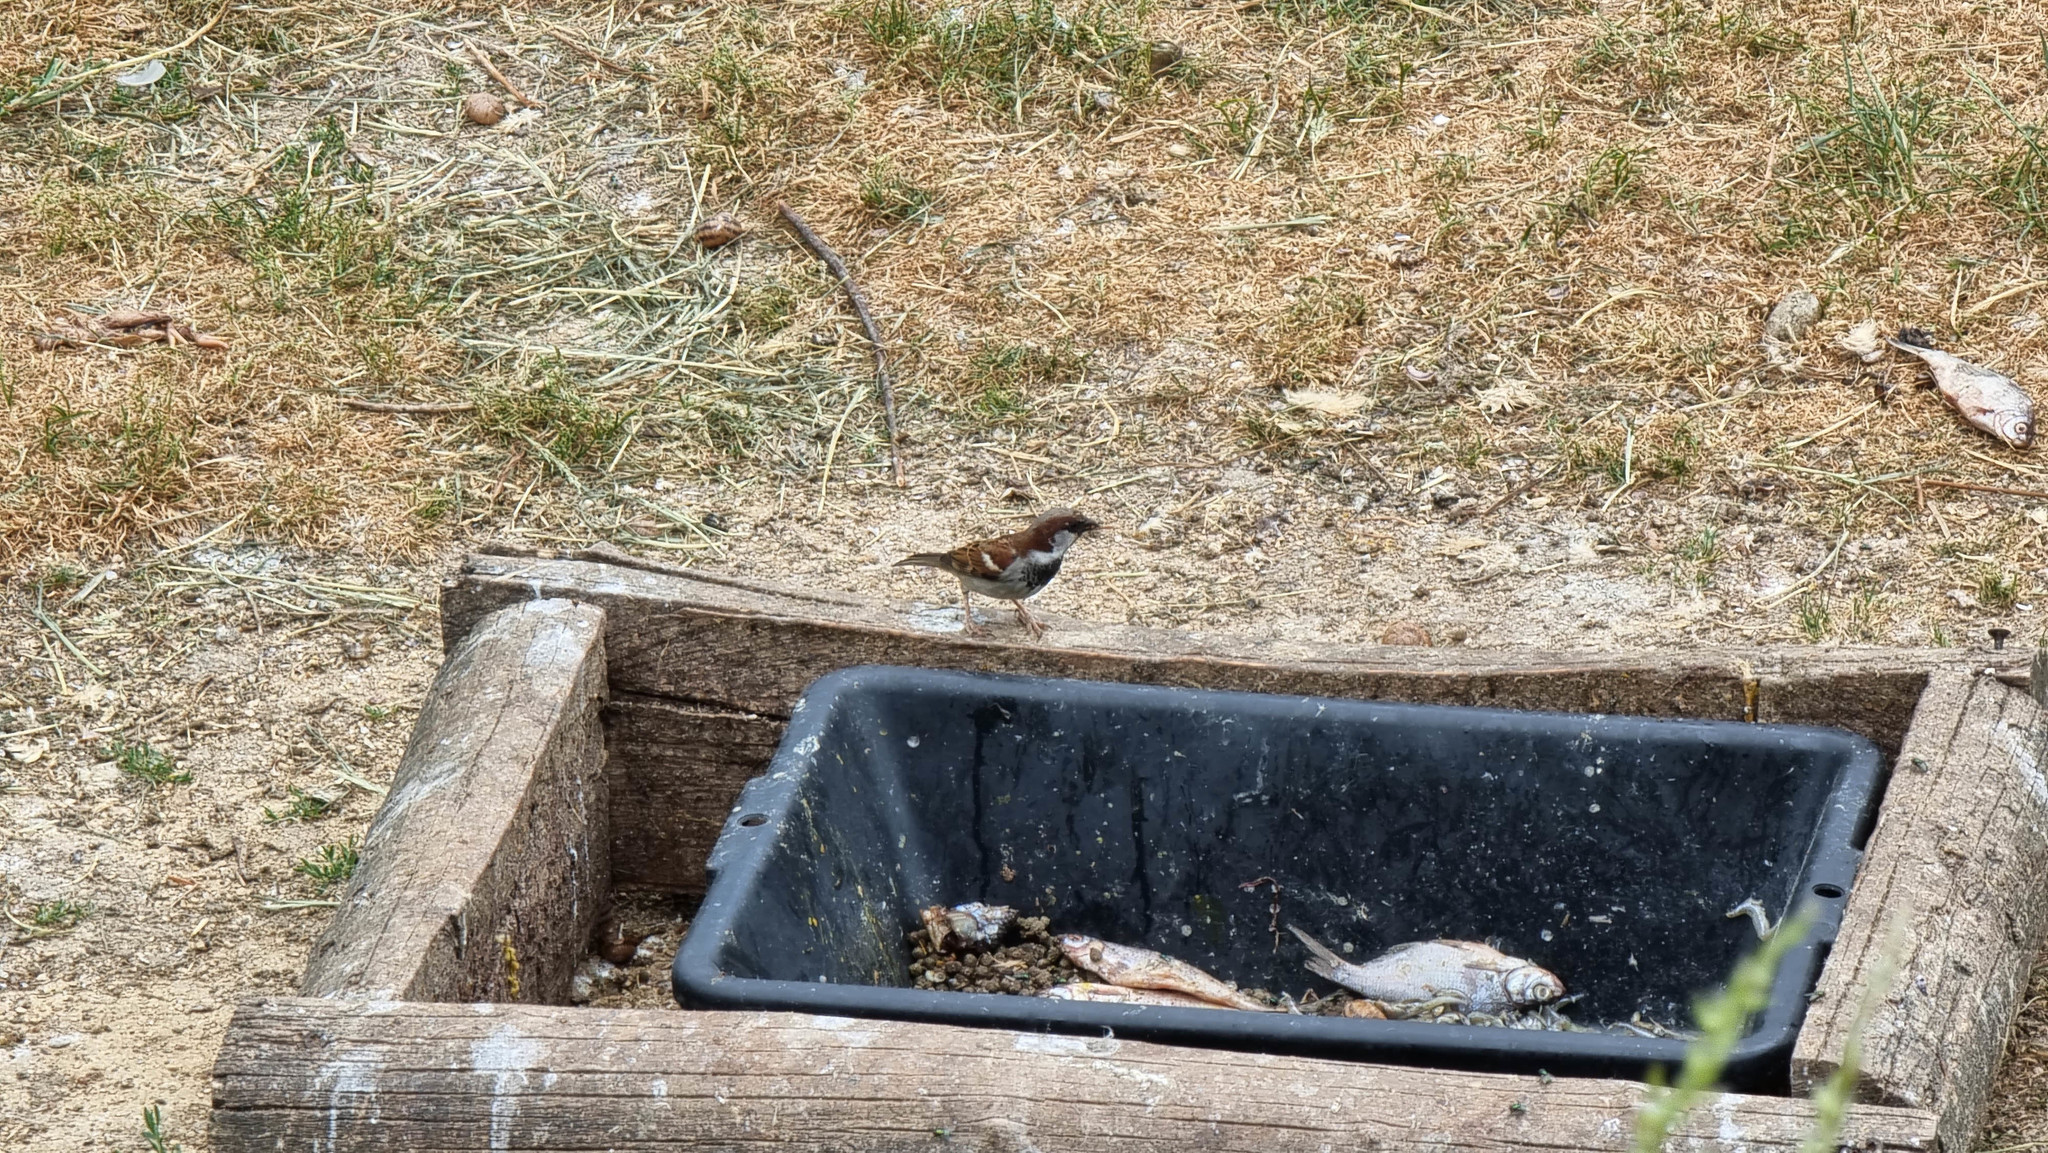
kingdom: Animalia
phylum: Chordata
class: Aves
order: Passeriformes
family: Passeridae
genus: Passer
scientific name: Passer domesticus
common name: House sparrow
